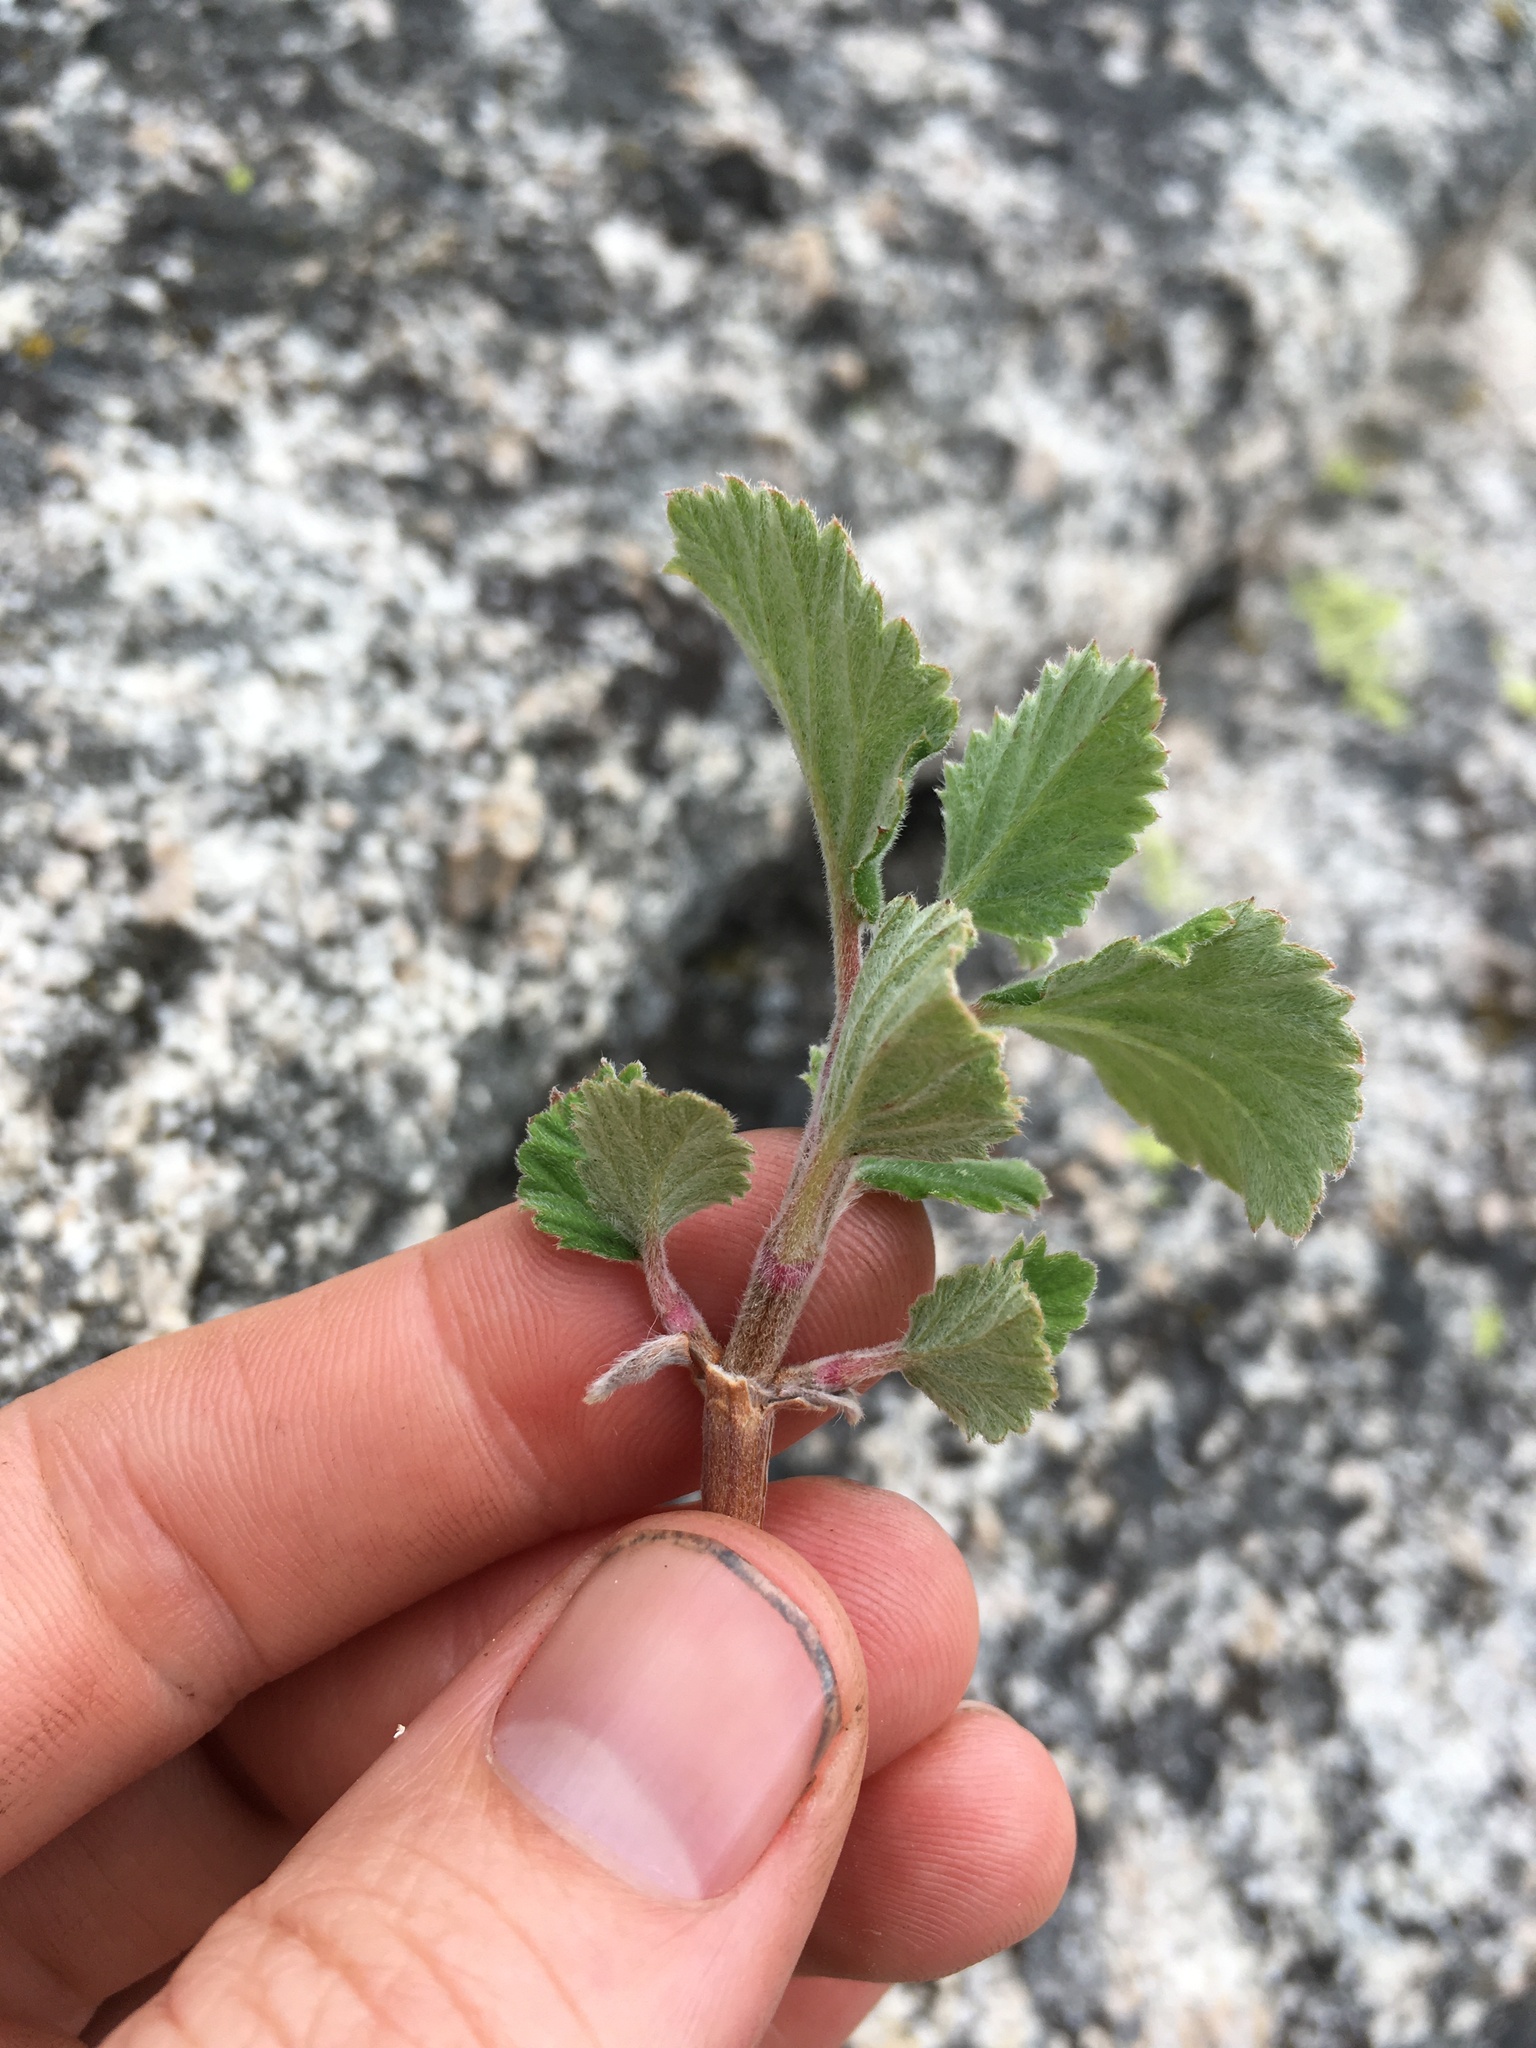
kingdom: Plantae
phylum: Tracheophyta
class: Magnoliopsida
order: Cornales
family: Hydrangeaceae
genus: Jamesia
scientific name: Jamesia americana
